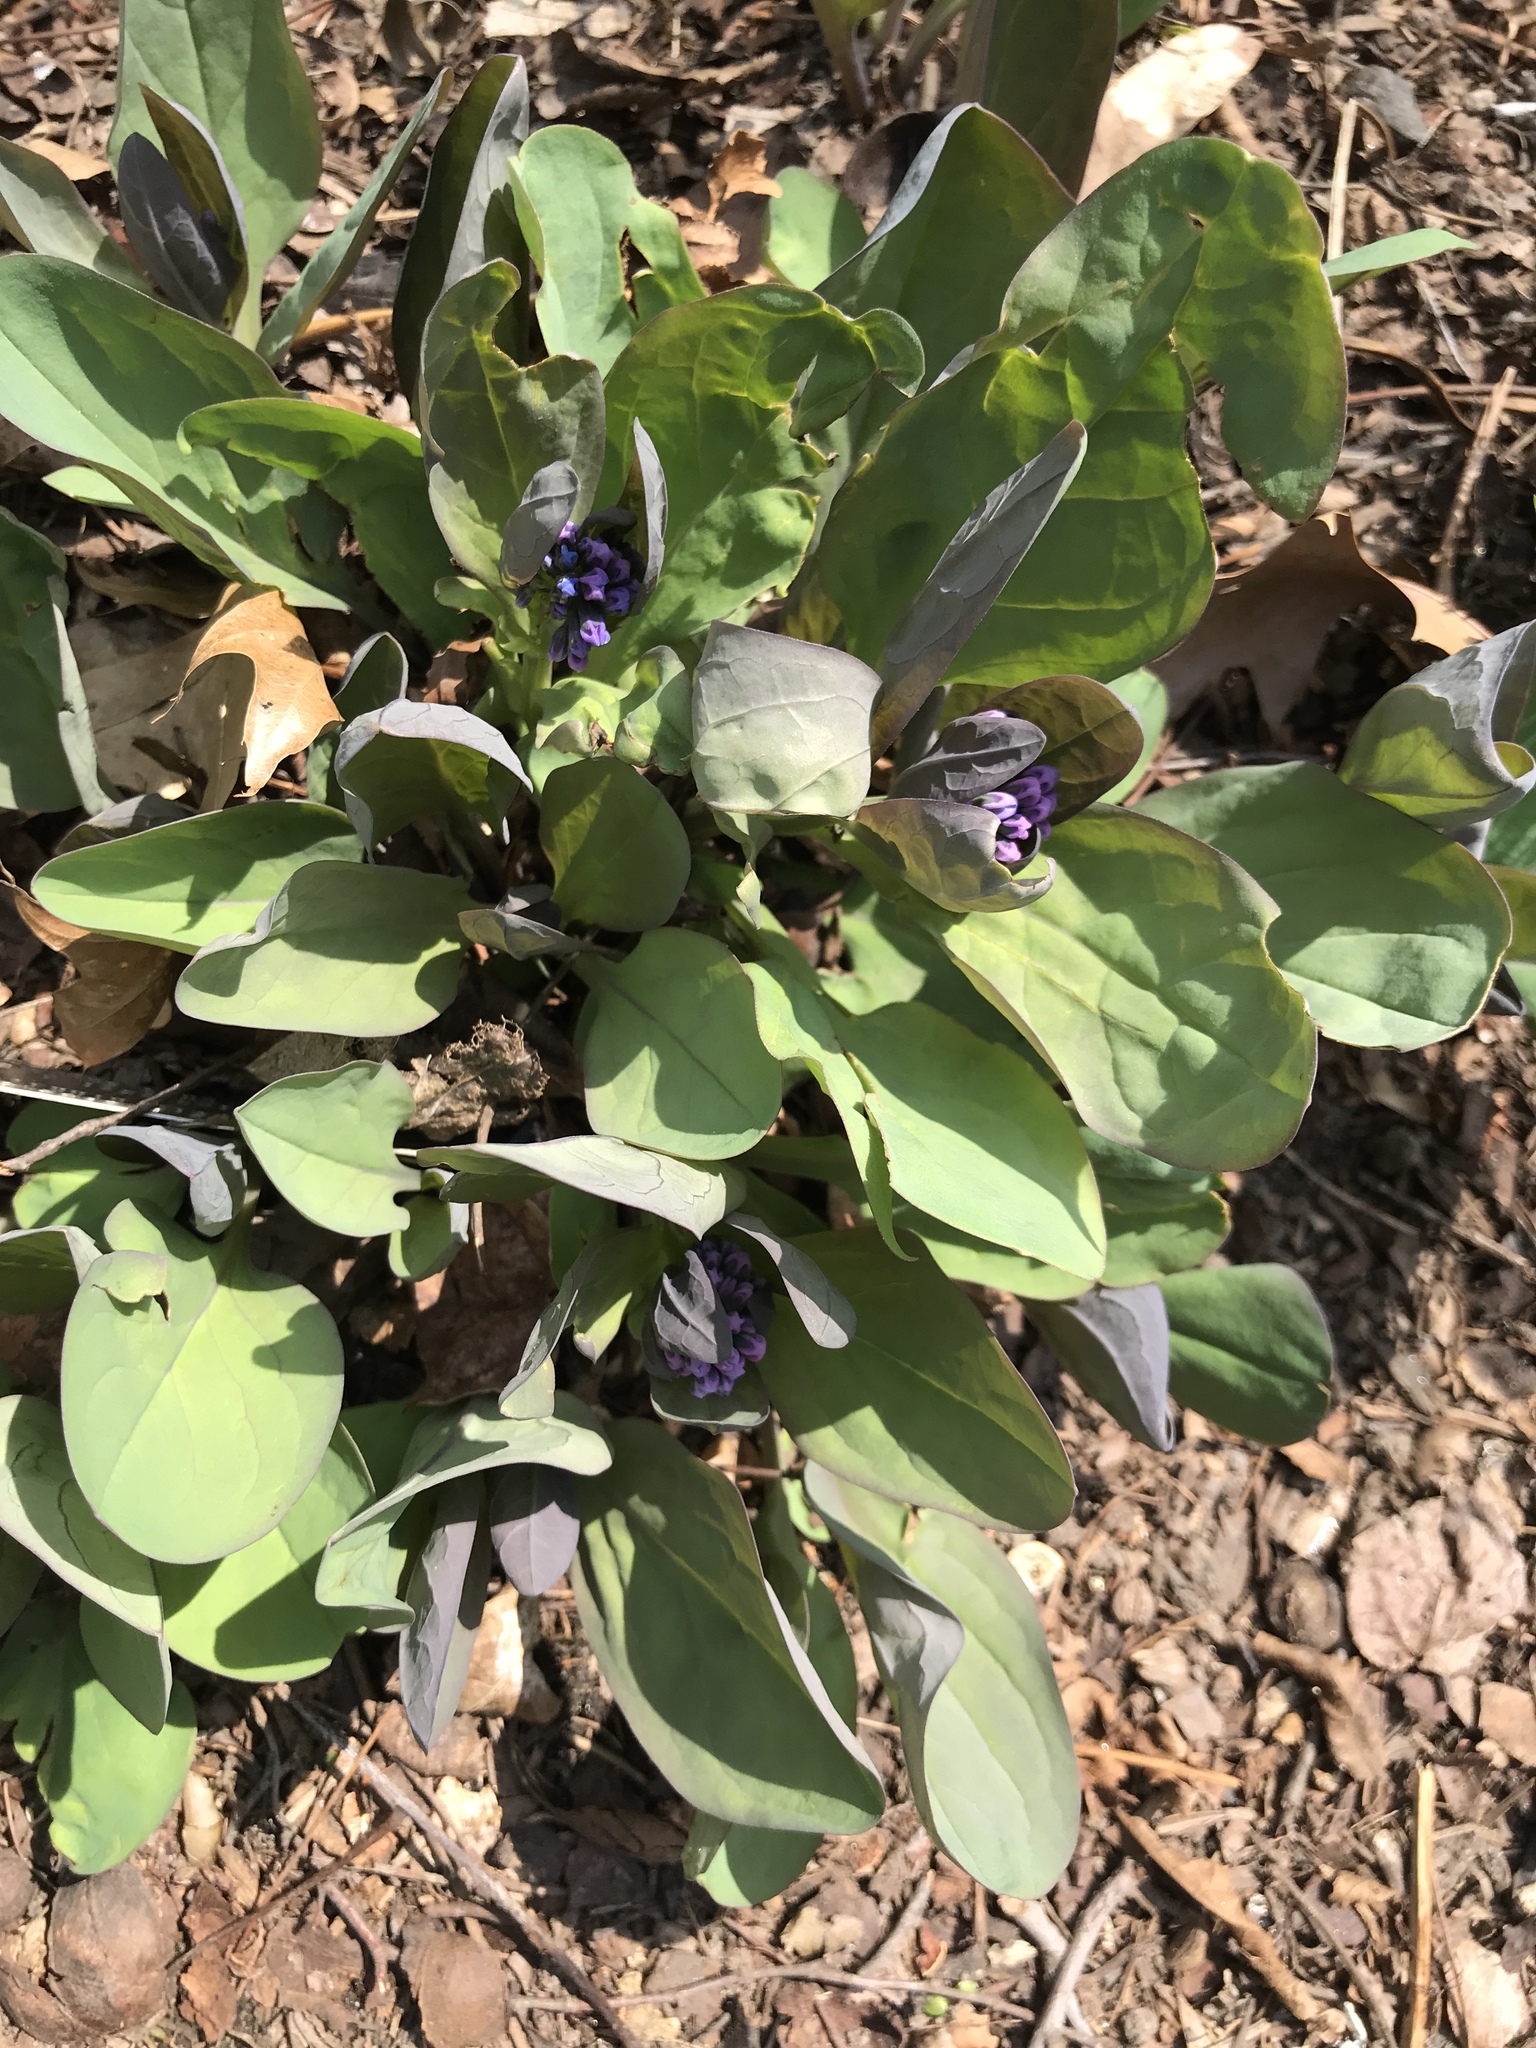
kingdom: Plantae
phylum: Tracheophyta
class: Magnoliopsida
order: Boraginales
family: Boraginaceae
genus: Mertensia
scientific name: Mertensia virginica
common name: Virginia bluebells
